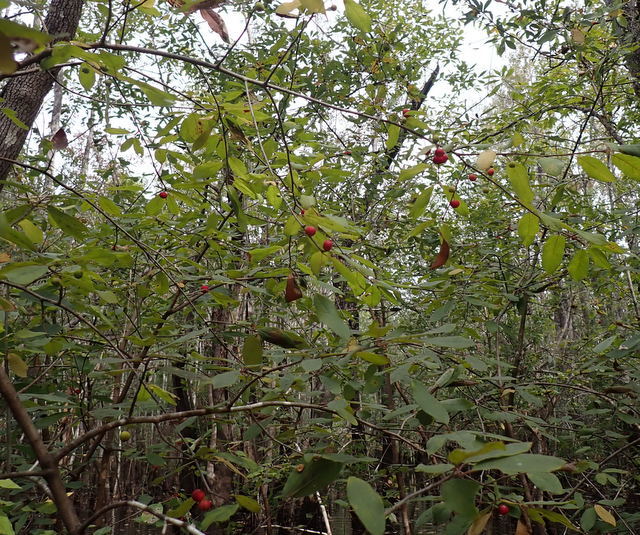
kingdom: Plantae
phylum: Tracheophyta
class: Magnoliopsida
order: Aquifoliales
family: Aquifoliaceae
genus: Ilex
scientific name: Ilex ambigua
